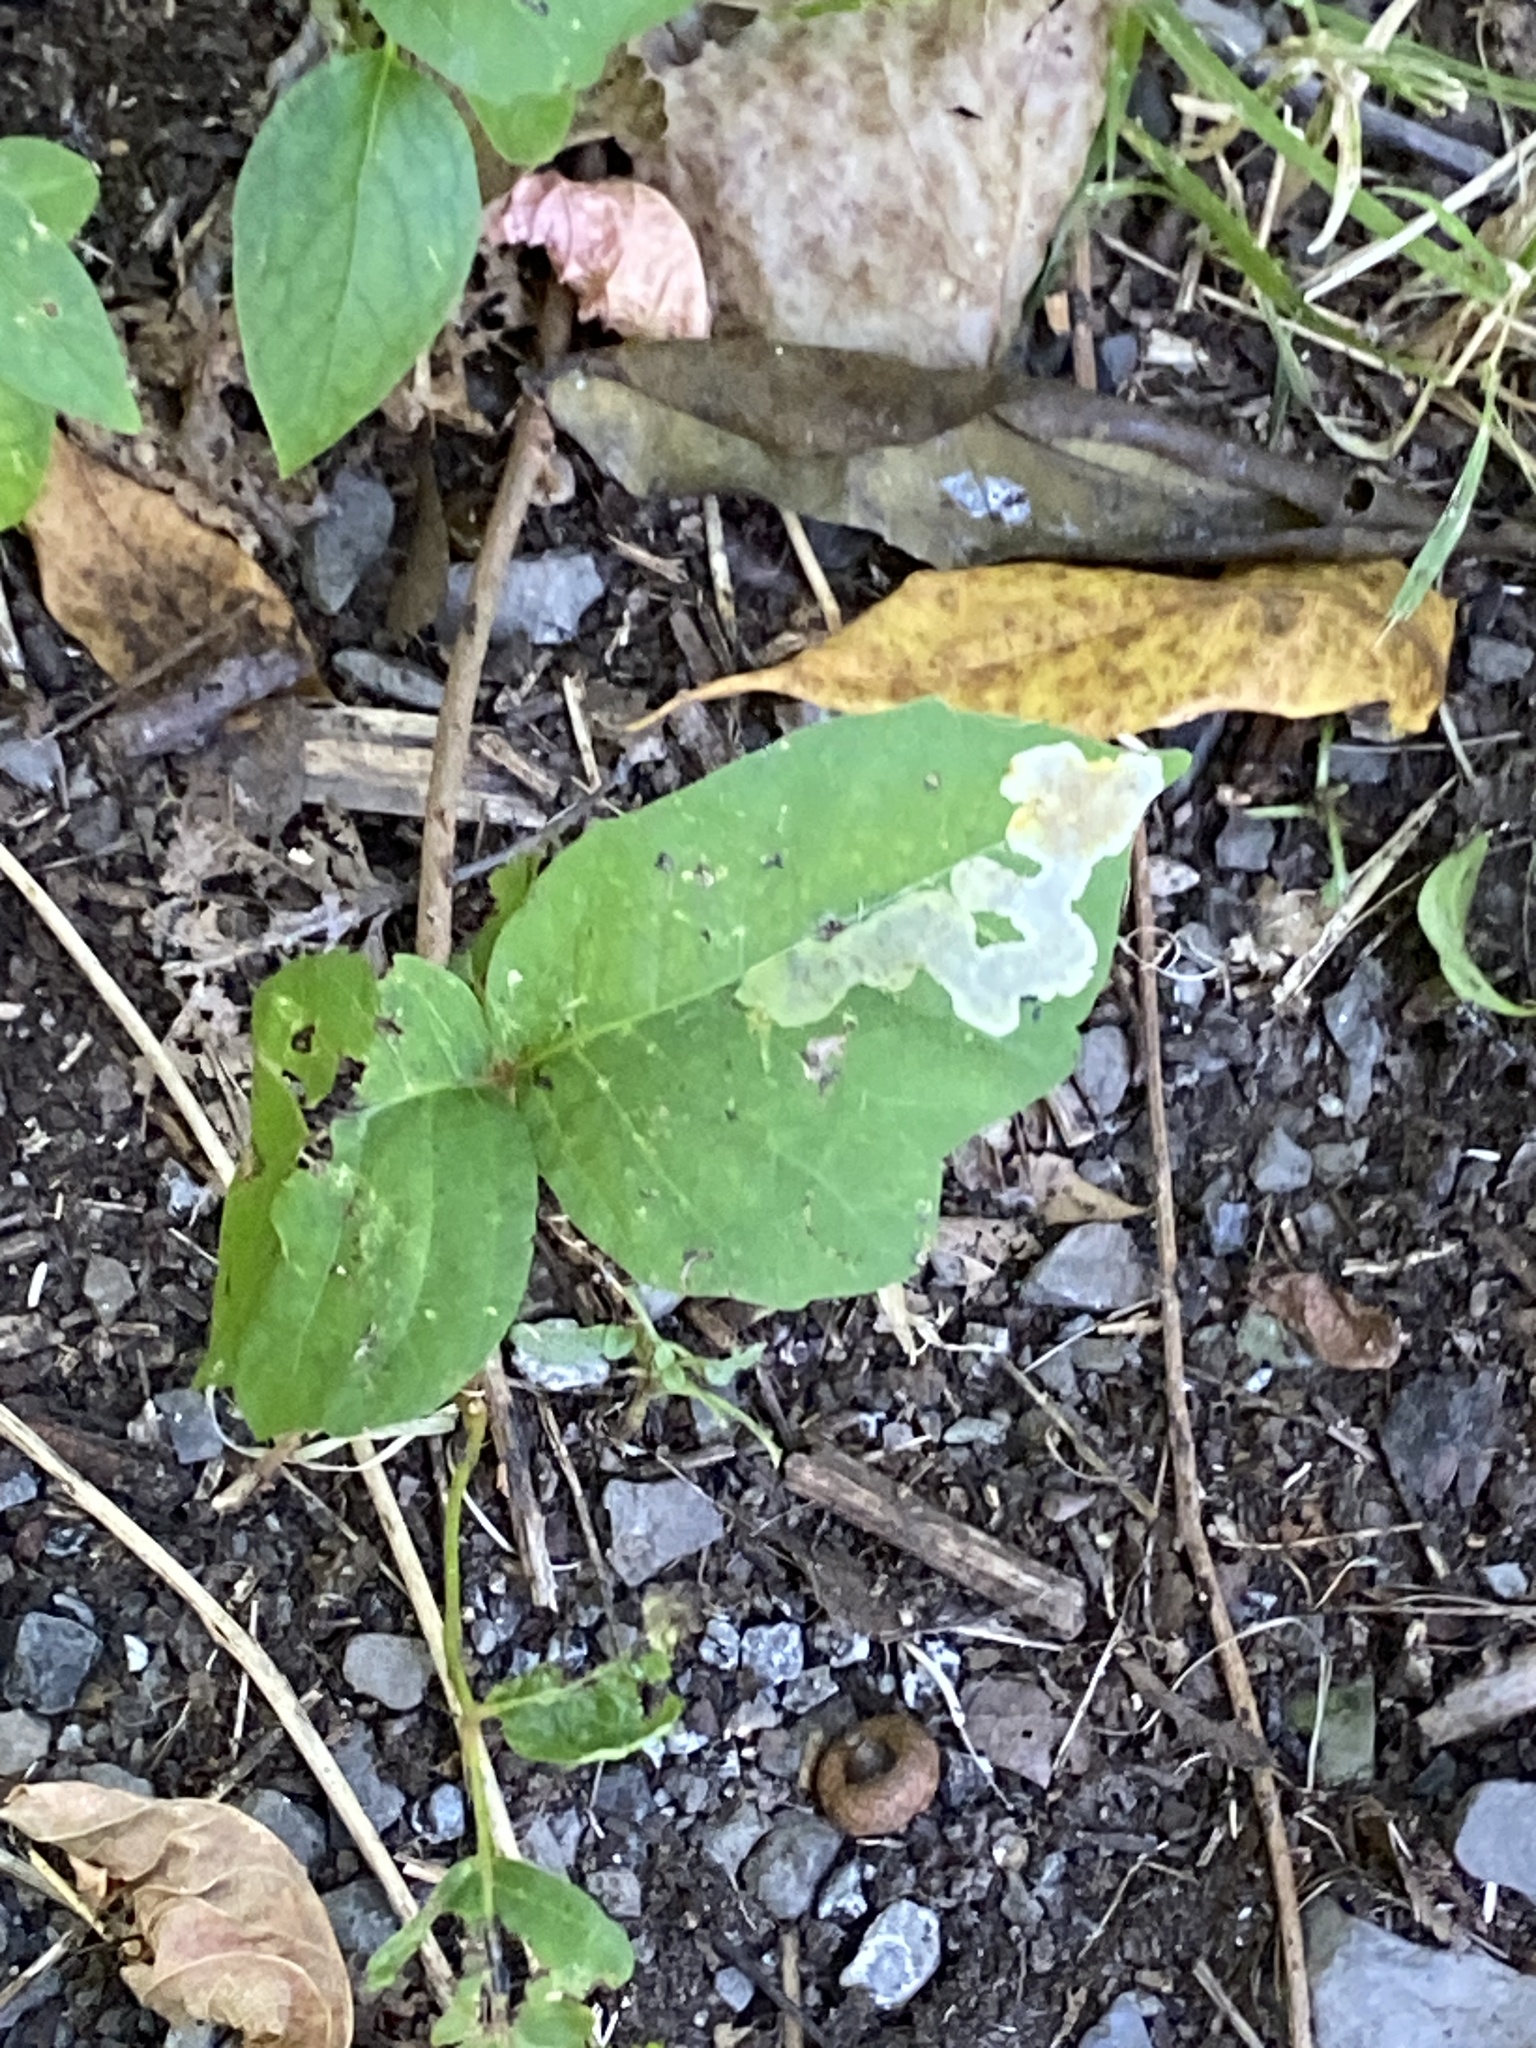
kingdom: Animalia
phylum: Arthropoda
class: Insecta
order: Lepidoptera
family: Gracillariidae
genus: Cameraria
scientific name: Cameraria guttifinitella
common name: Poison ivy leaf-miner moth
